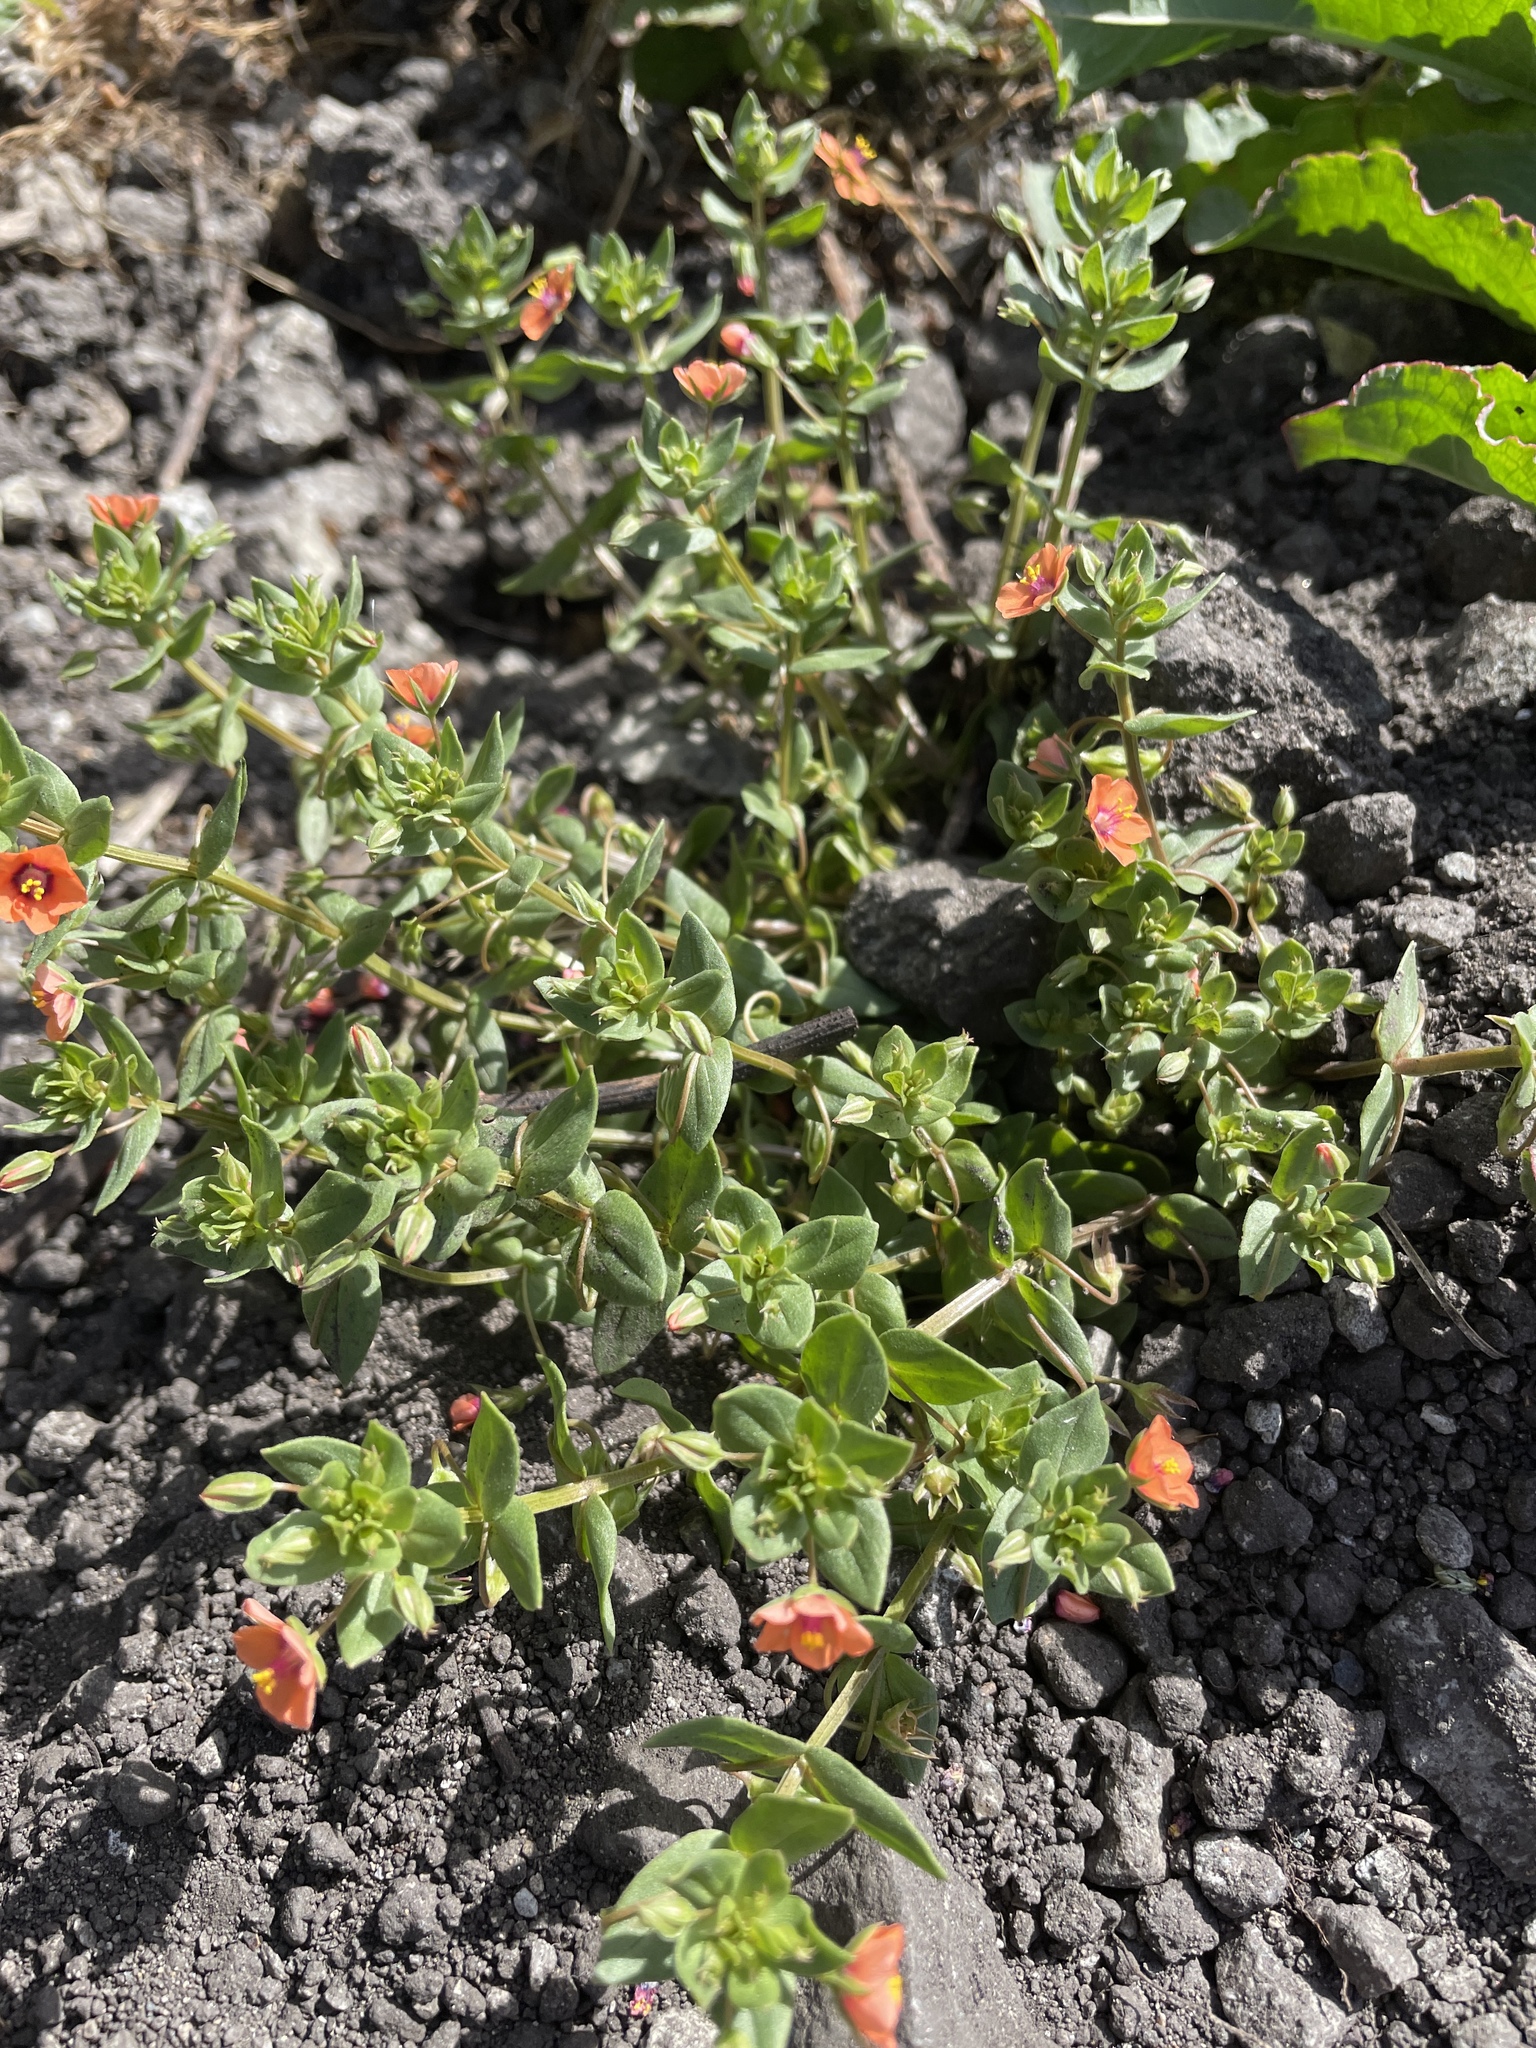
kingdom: Plantae
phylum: Tracheophyta
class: Magnoliopsida
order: Ericales
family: Primulaceae
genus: Lysimachia
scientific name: Lysimachia arvensis
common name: Scarlet pimpernel
